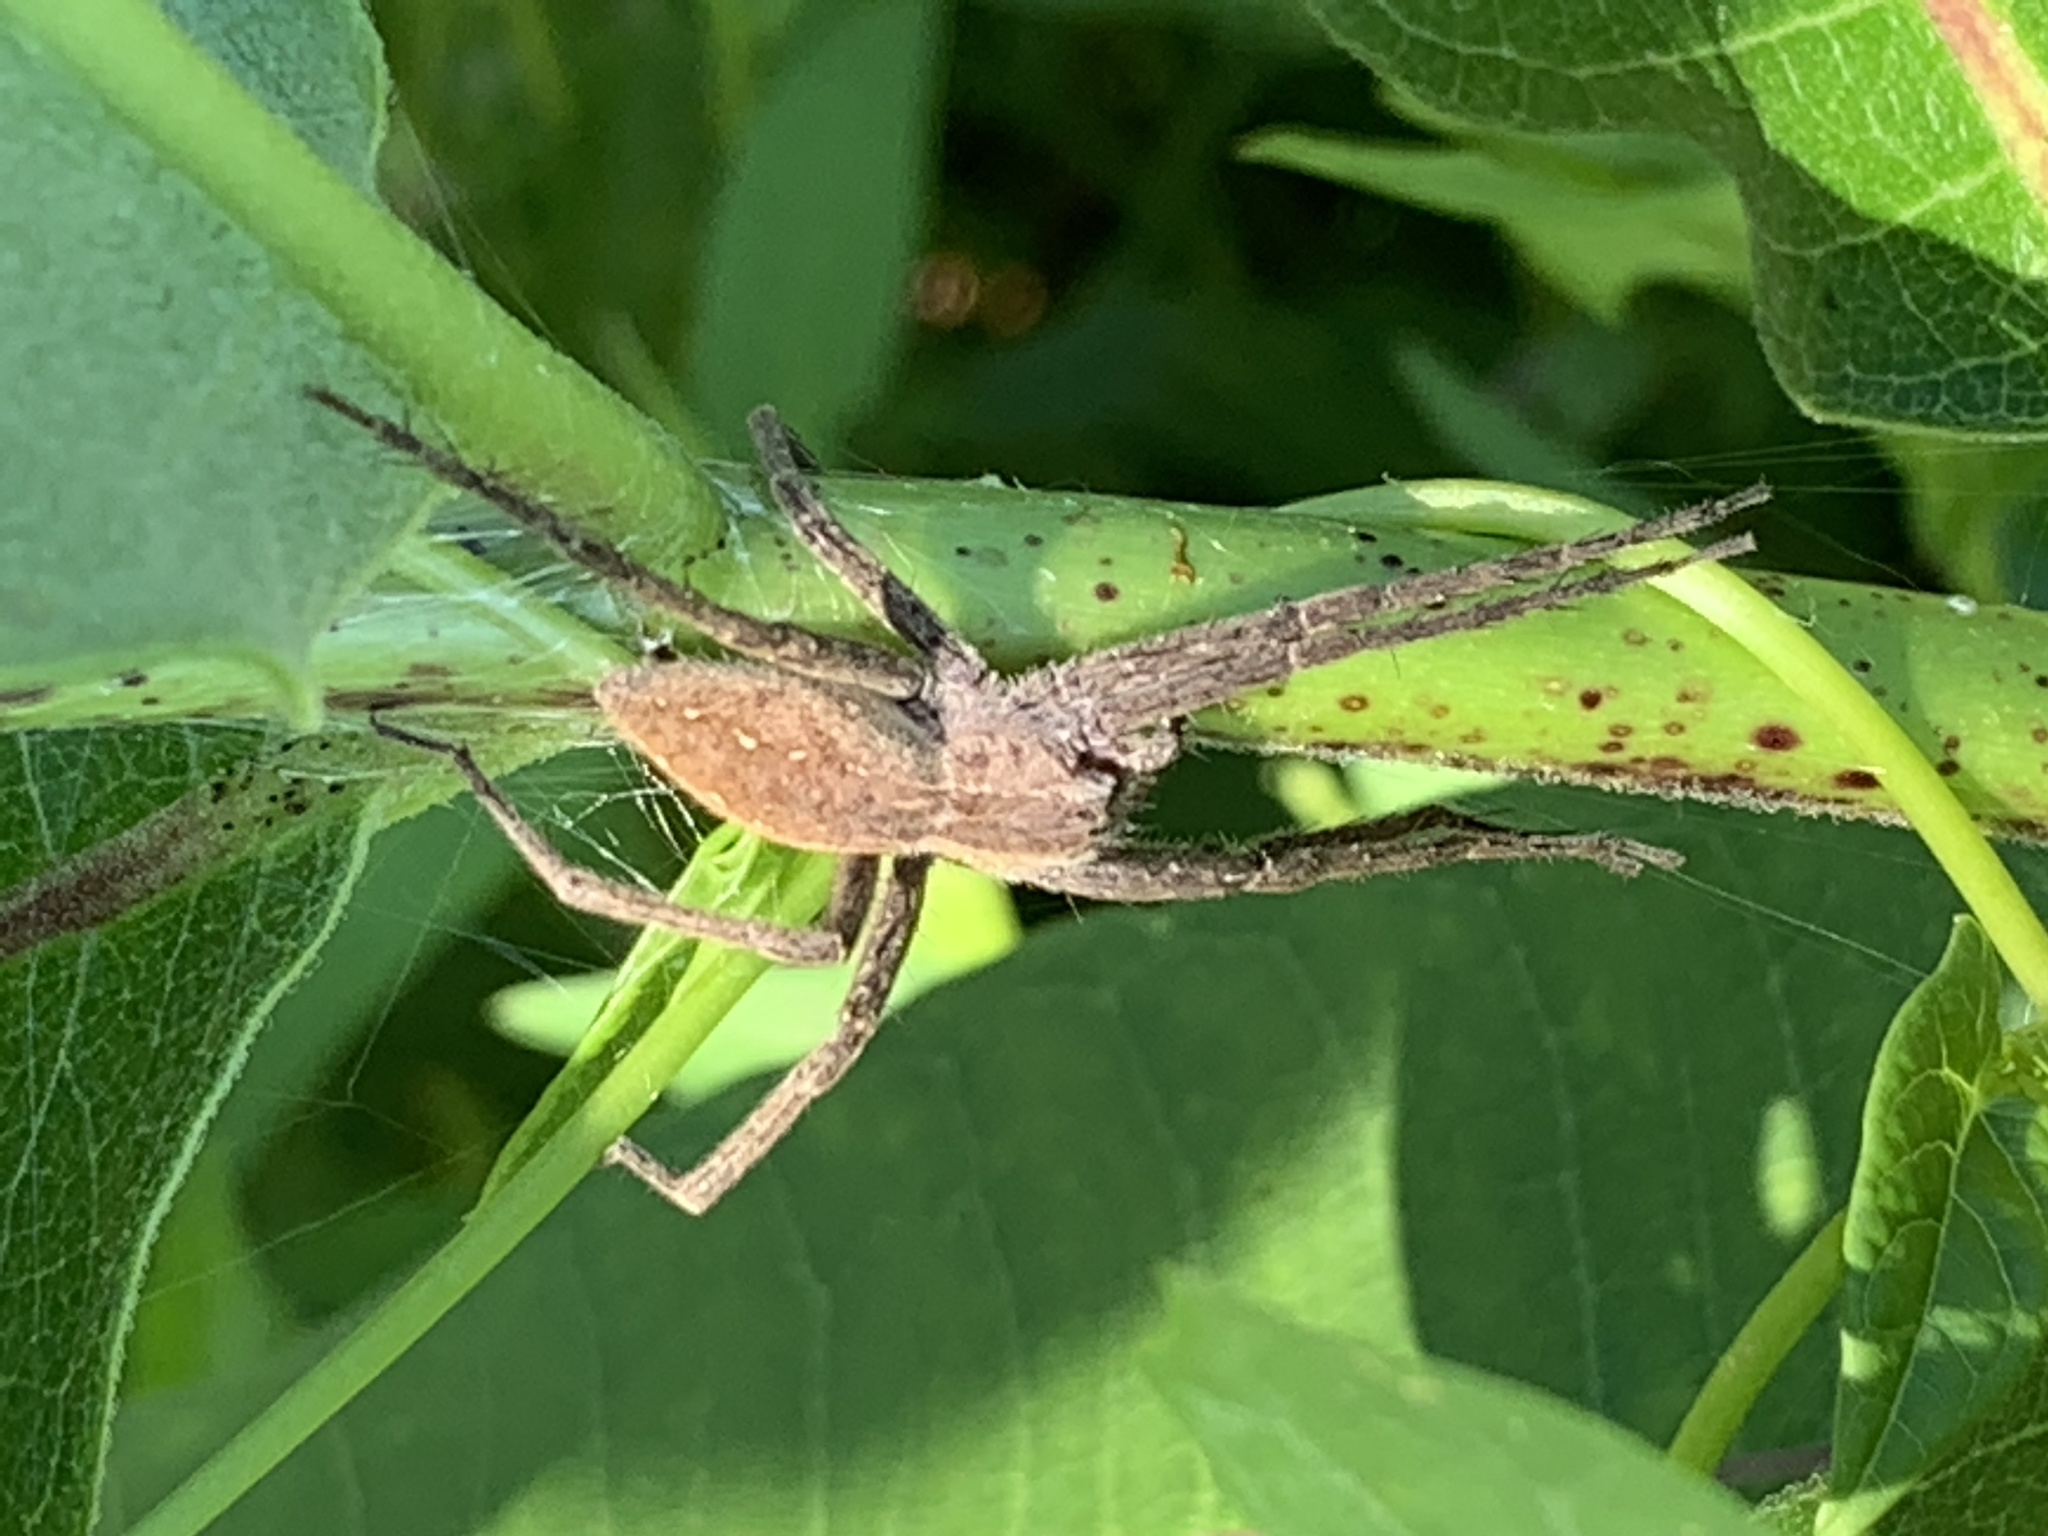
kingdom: Animalia
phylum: Arthropoda
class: Arachnida
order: Araneae
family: Pisauridae
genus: Pisaurina
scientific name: Pisaurina mira
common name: American nursery web spider
